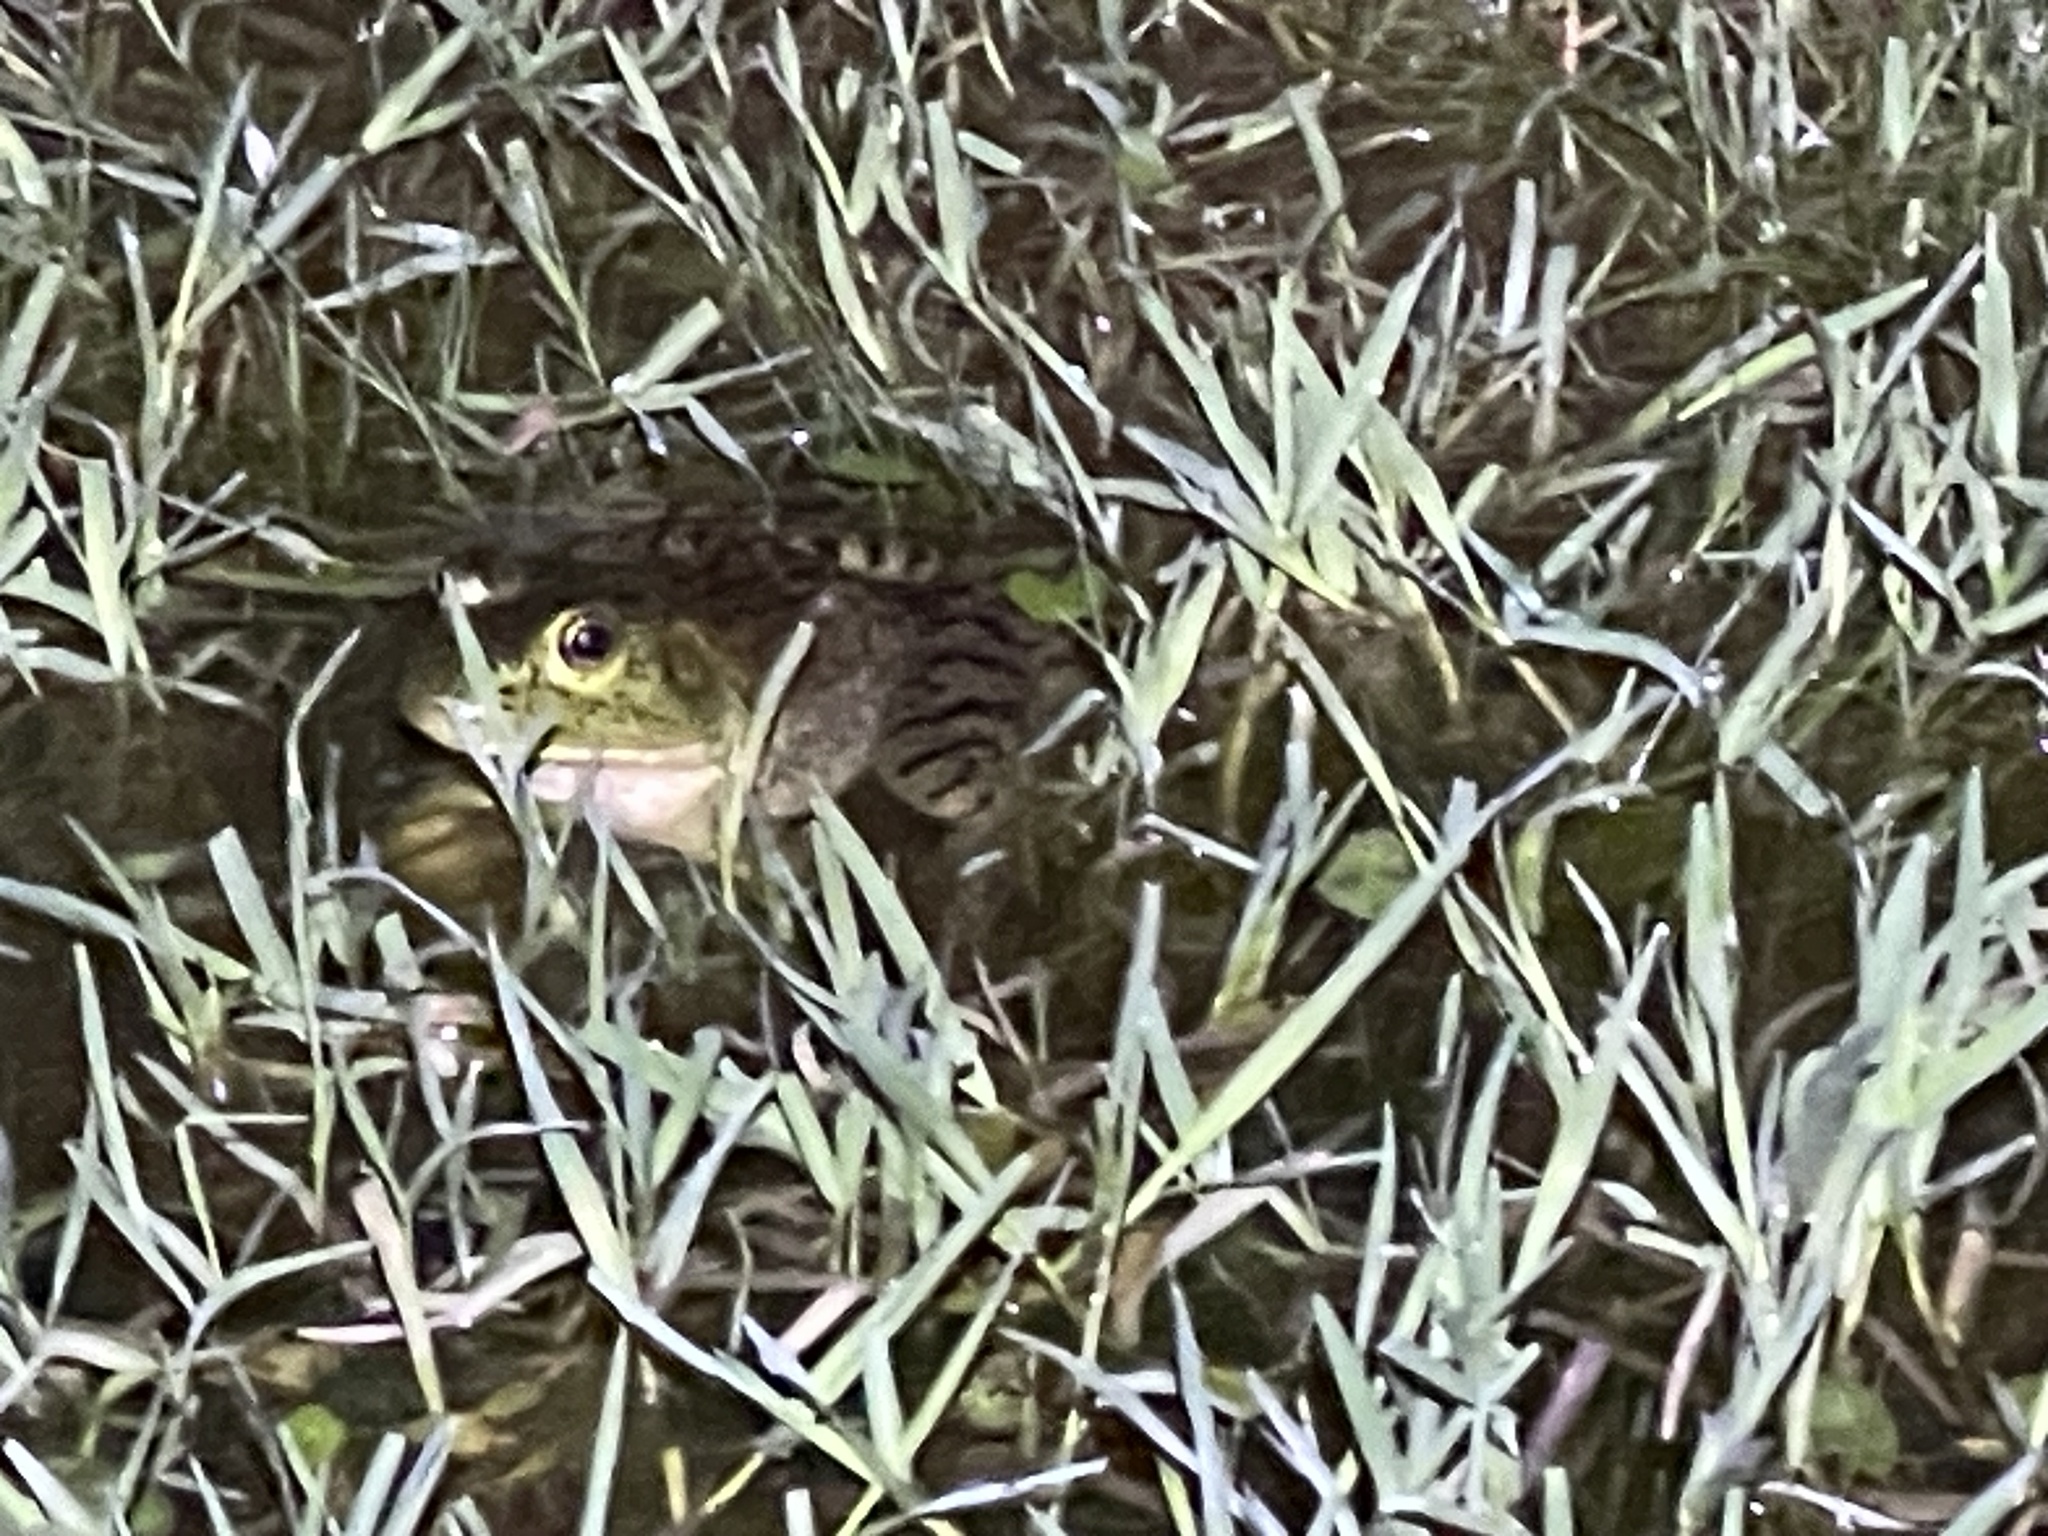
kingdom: Animalia
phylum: Chordata
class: Amphibia
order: Anura
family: Ranidae
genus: Lithobates
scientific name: Lithobates catesbeianus
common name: American bullfrog
